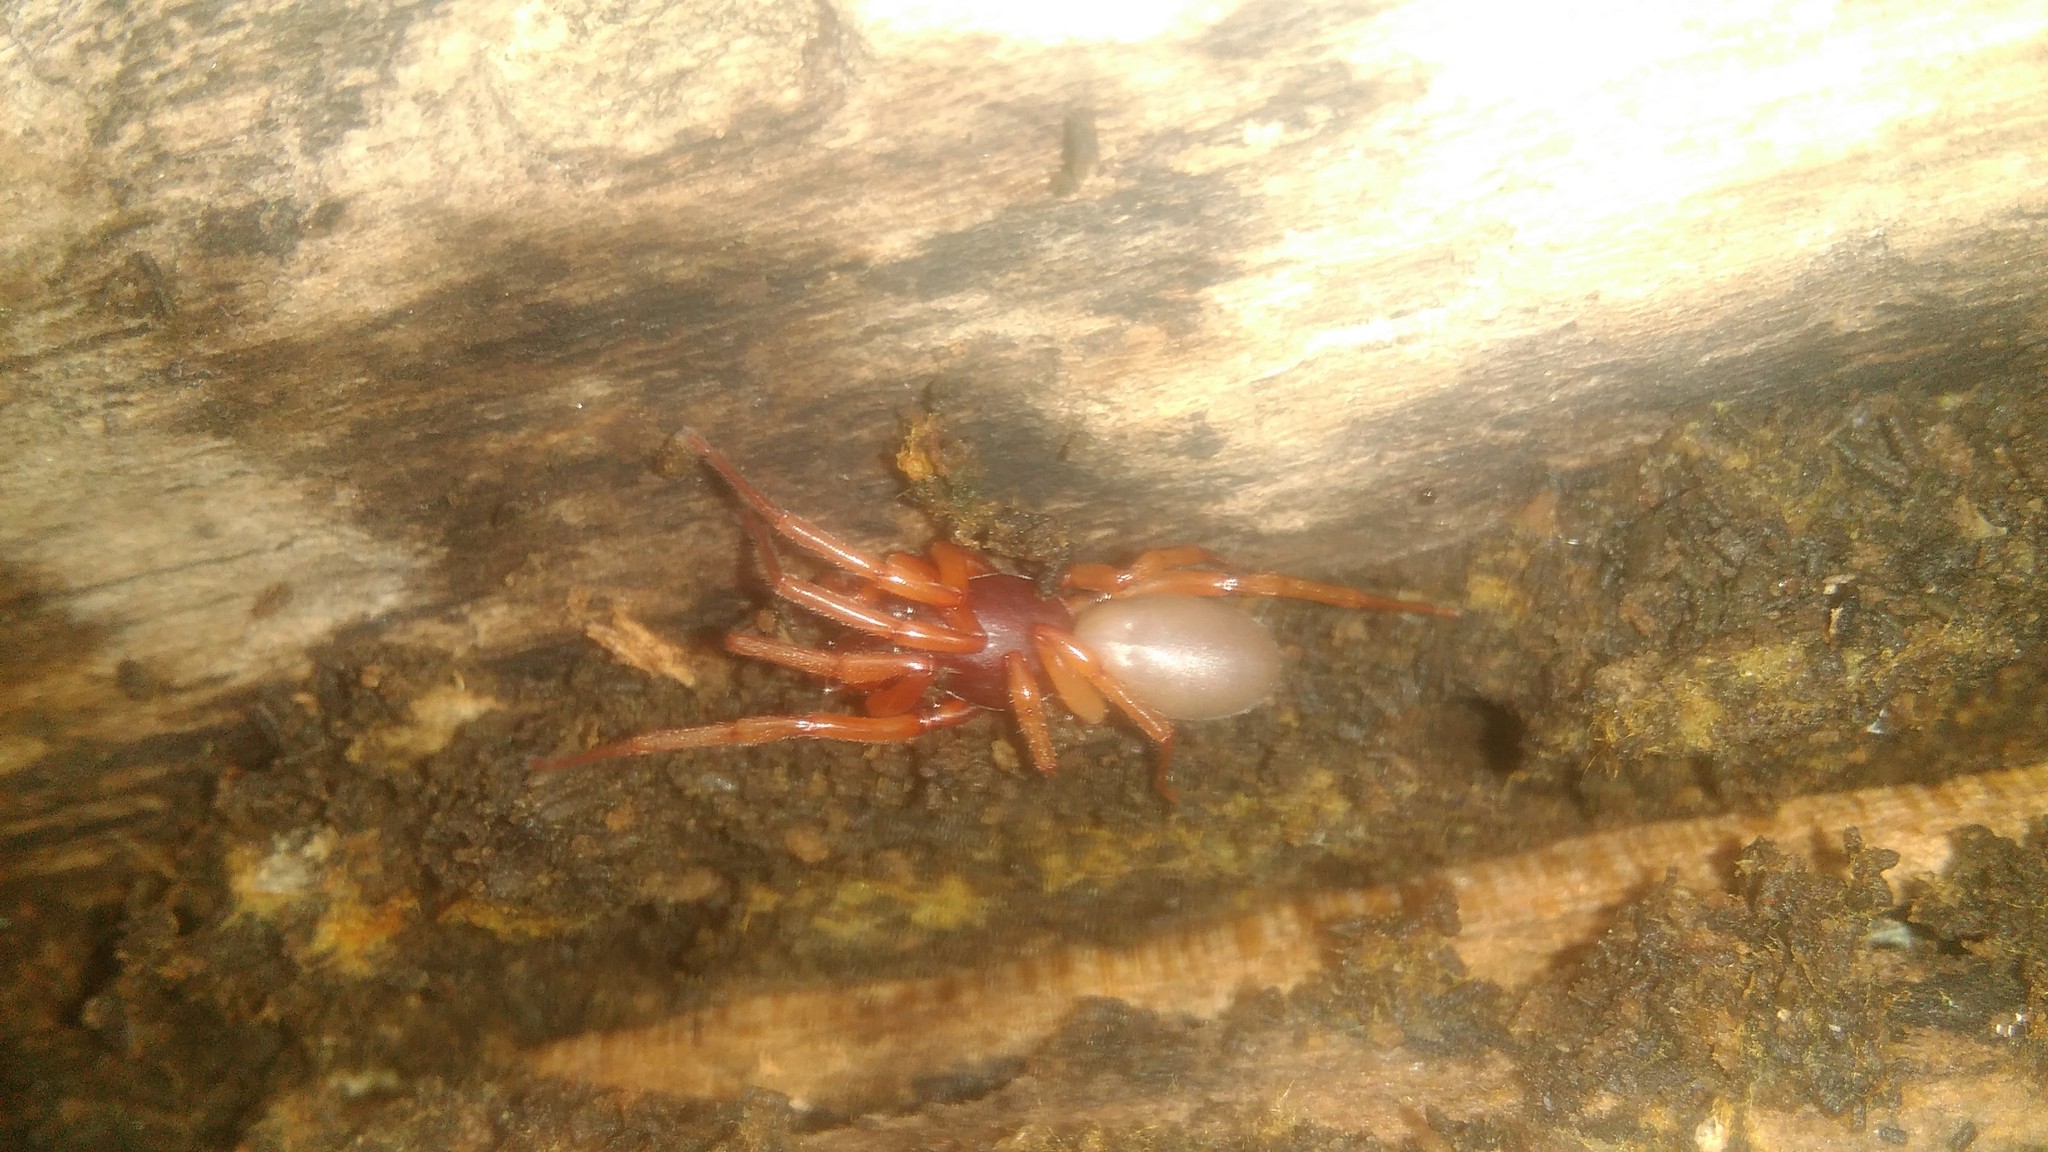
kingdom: Animalia
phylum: Arthropoda
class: Arachnida
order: Araneae
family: Dysderidae
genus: Dysdera
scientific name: Dysdera crocata
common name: Woodlouse spider
